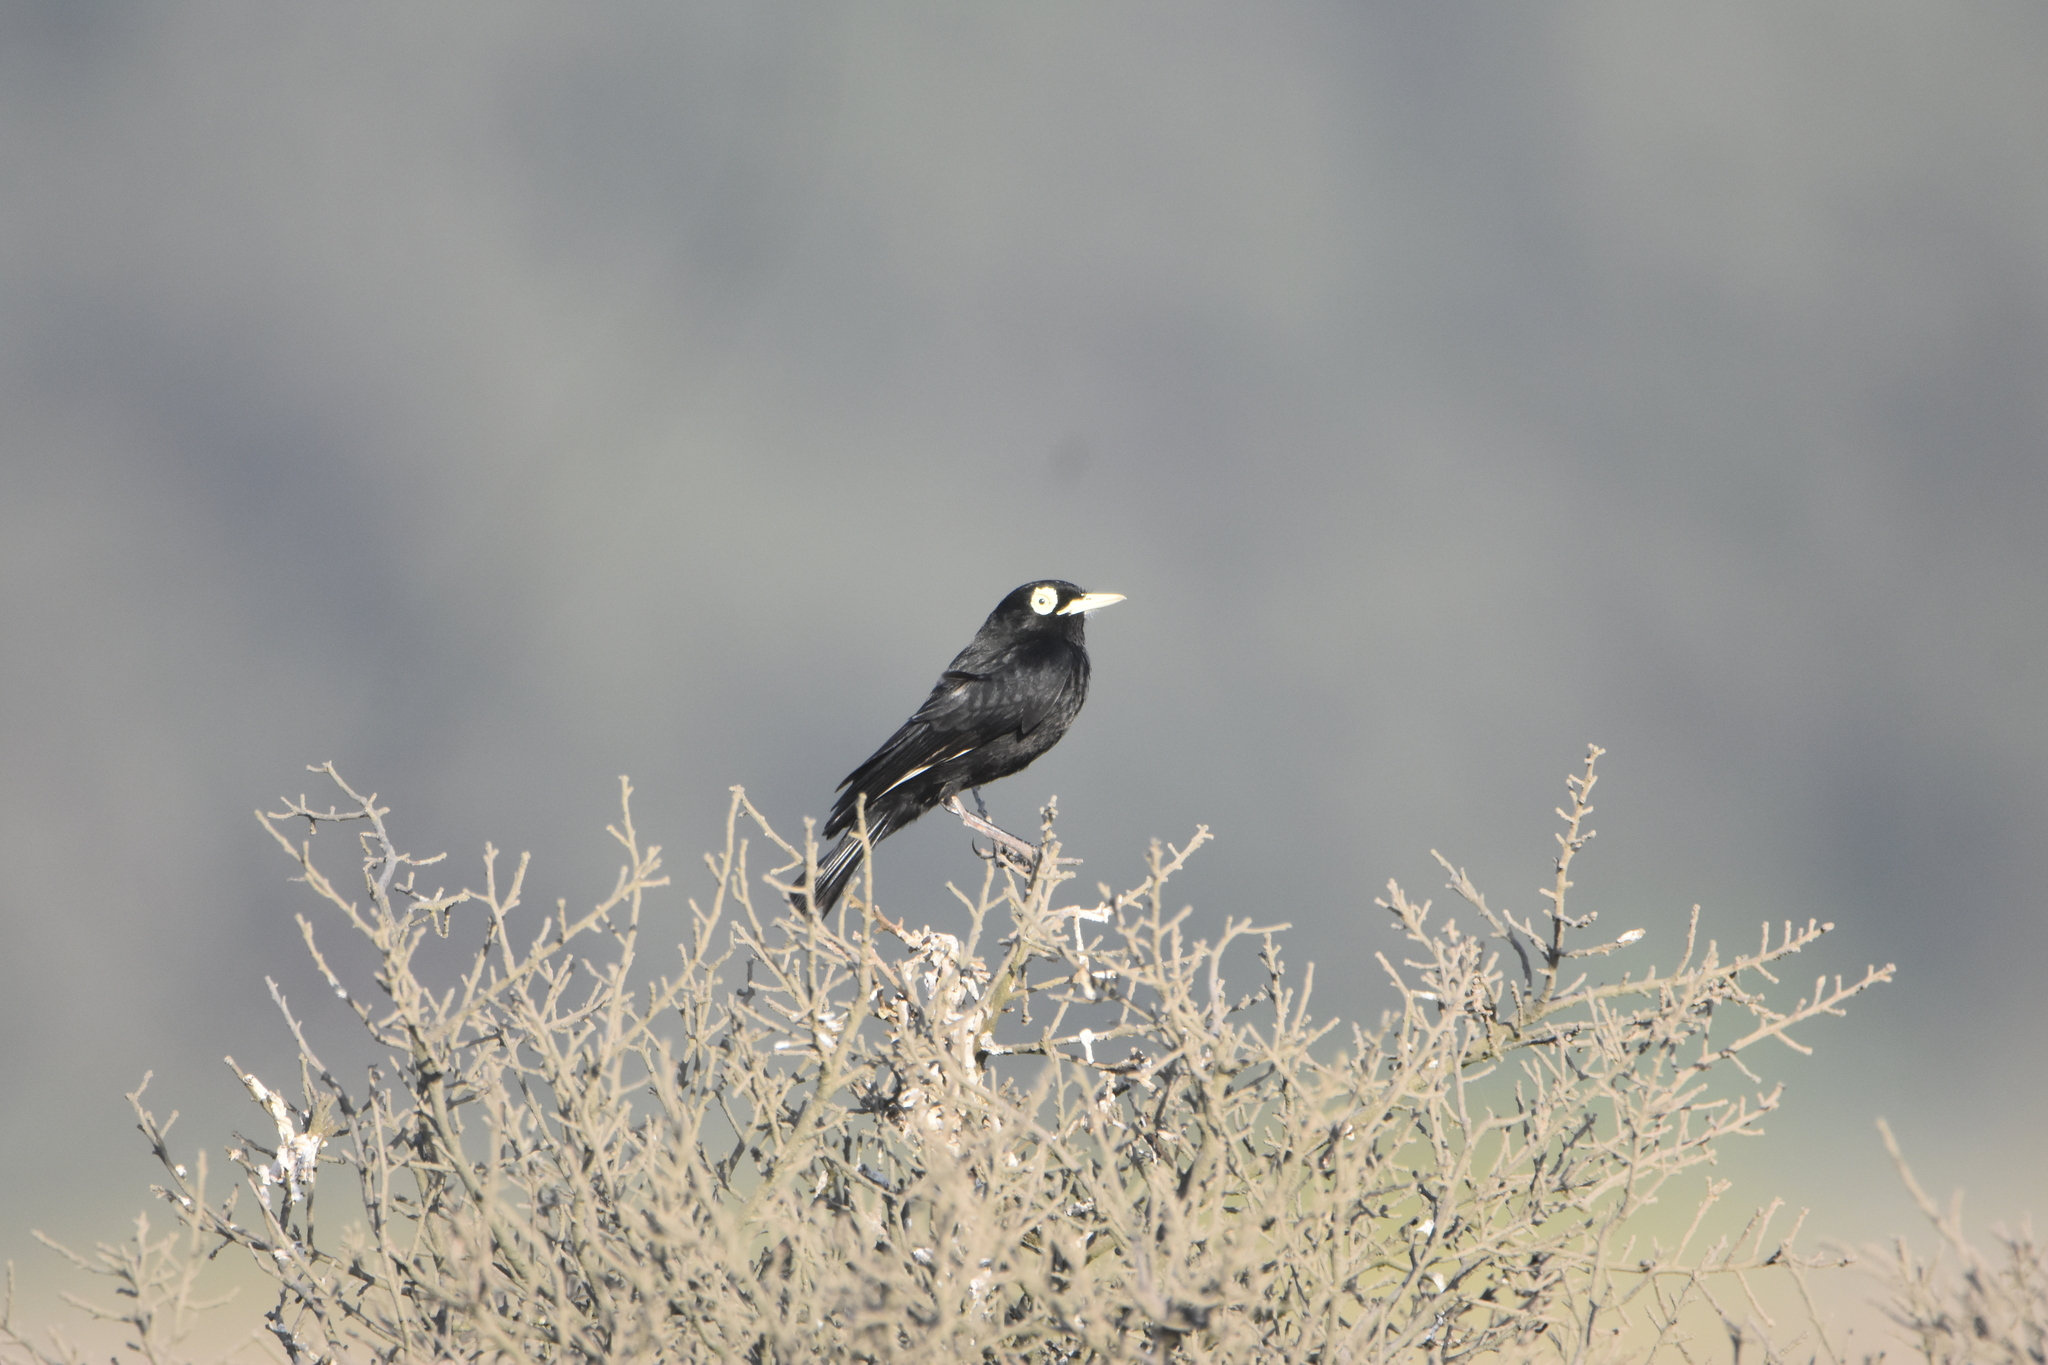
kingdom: Animalia
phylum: Chordata
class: Aves
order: Passeriformes
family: Tyrannidae
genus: Hymenops
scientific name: Hymenops perspicillatus
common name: Spectacled tyrant
